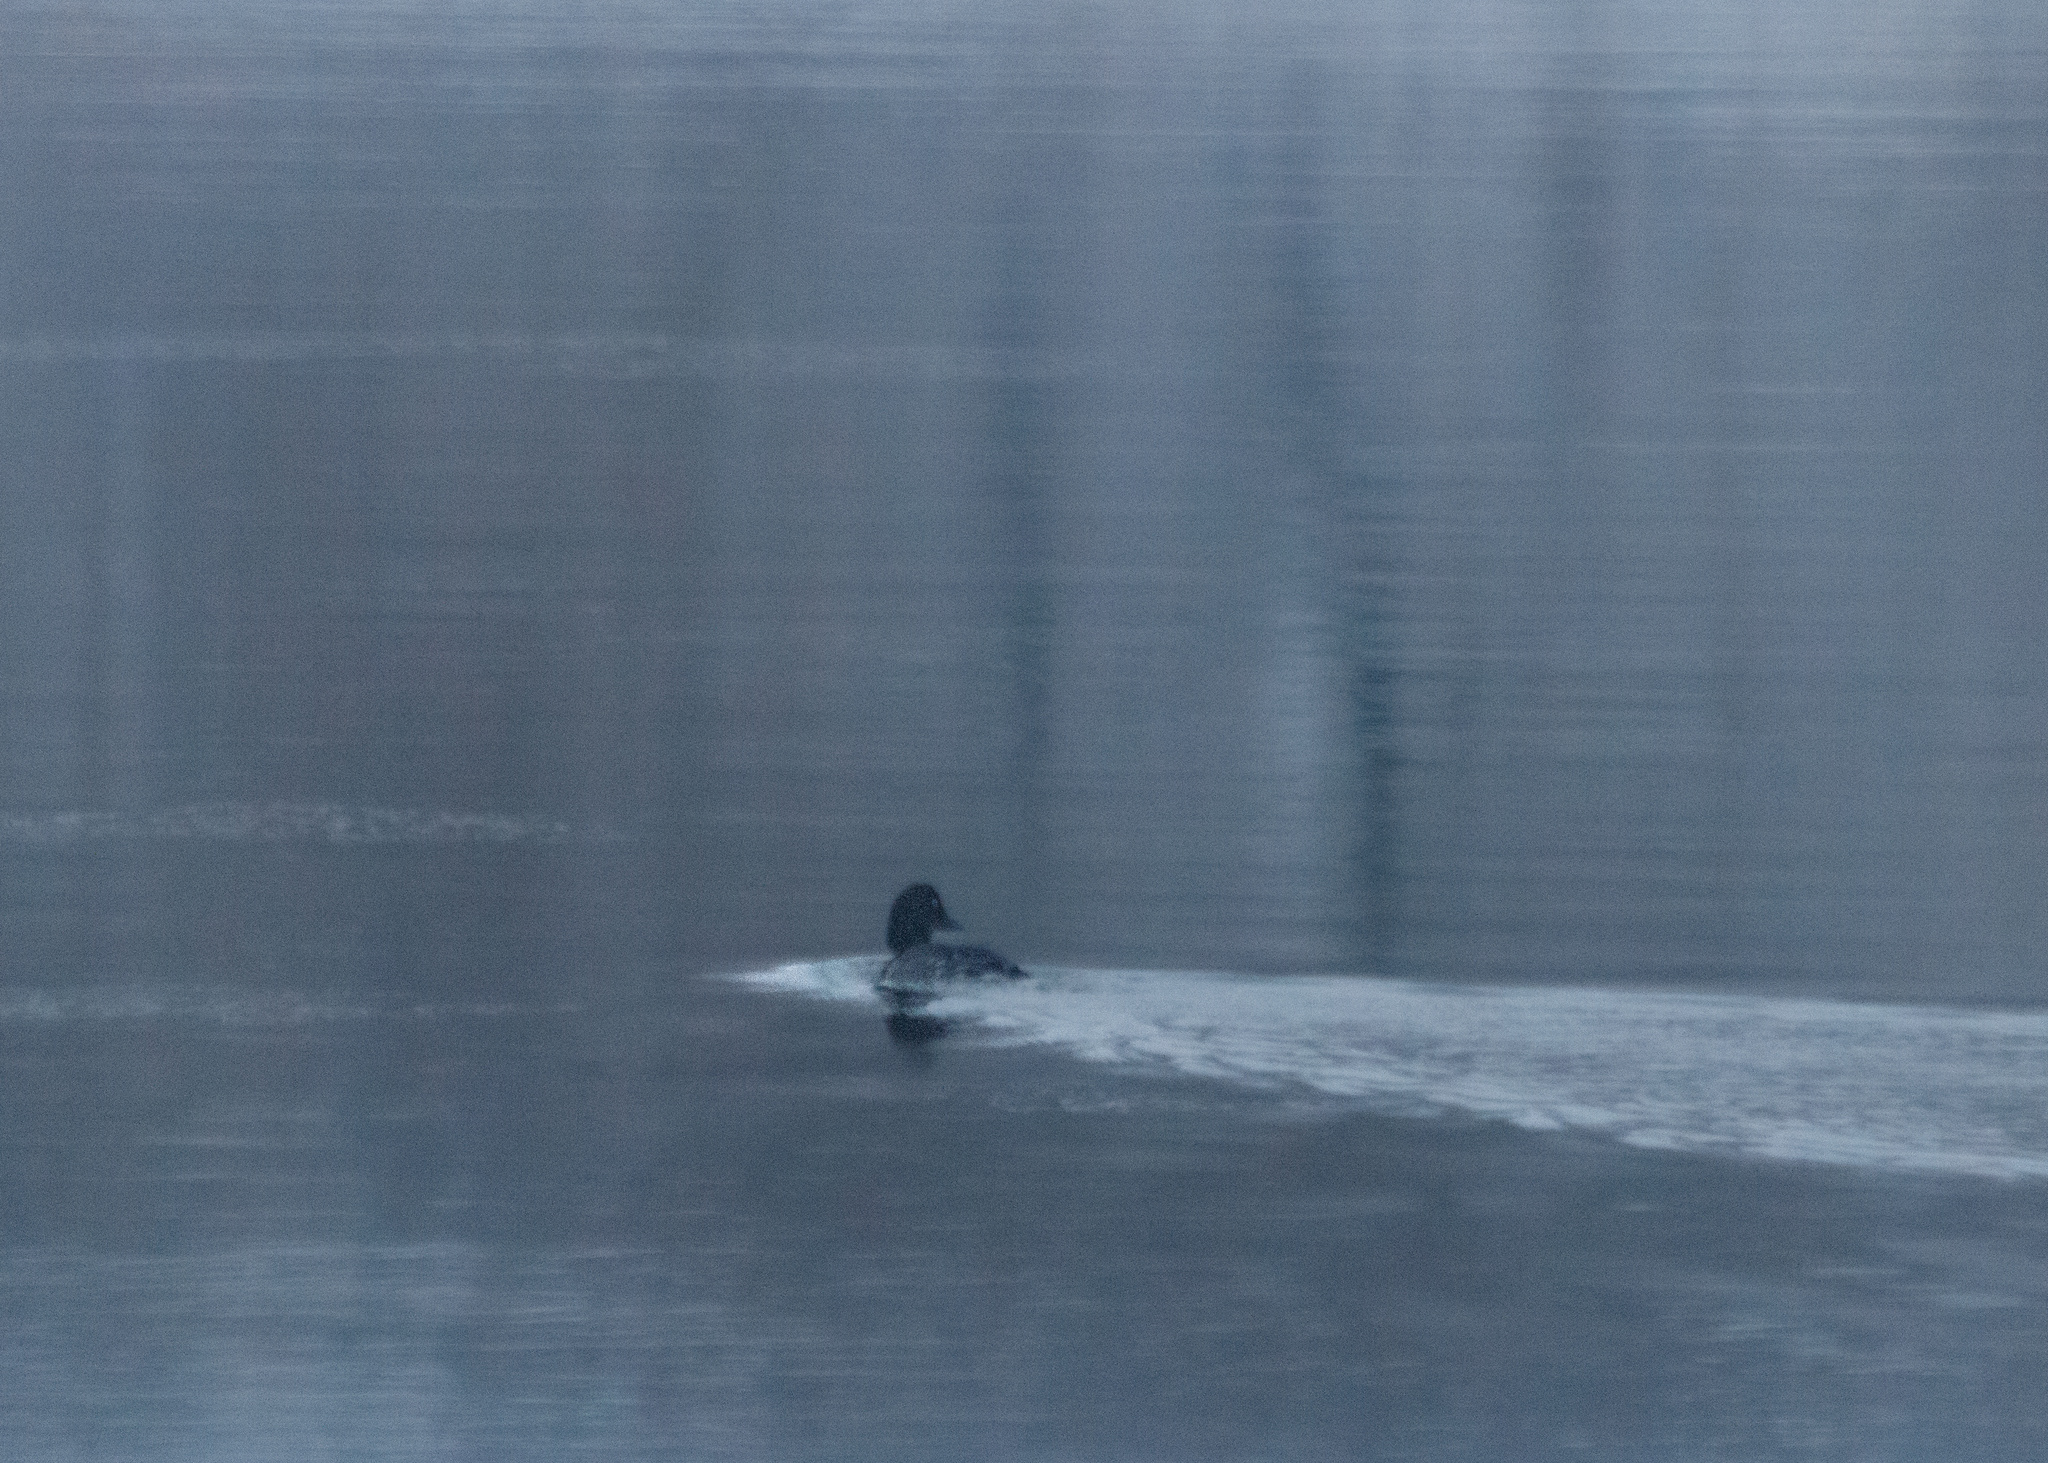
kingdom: Animalia
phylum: Chordata
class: Aves
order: Anseriformes
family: Anatidae
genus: Bucephala
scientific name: Bucephala clangula
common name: Common goldeneye
